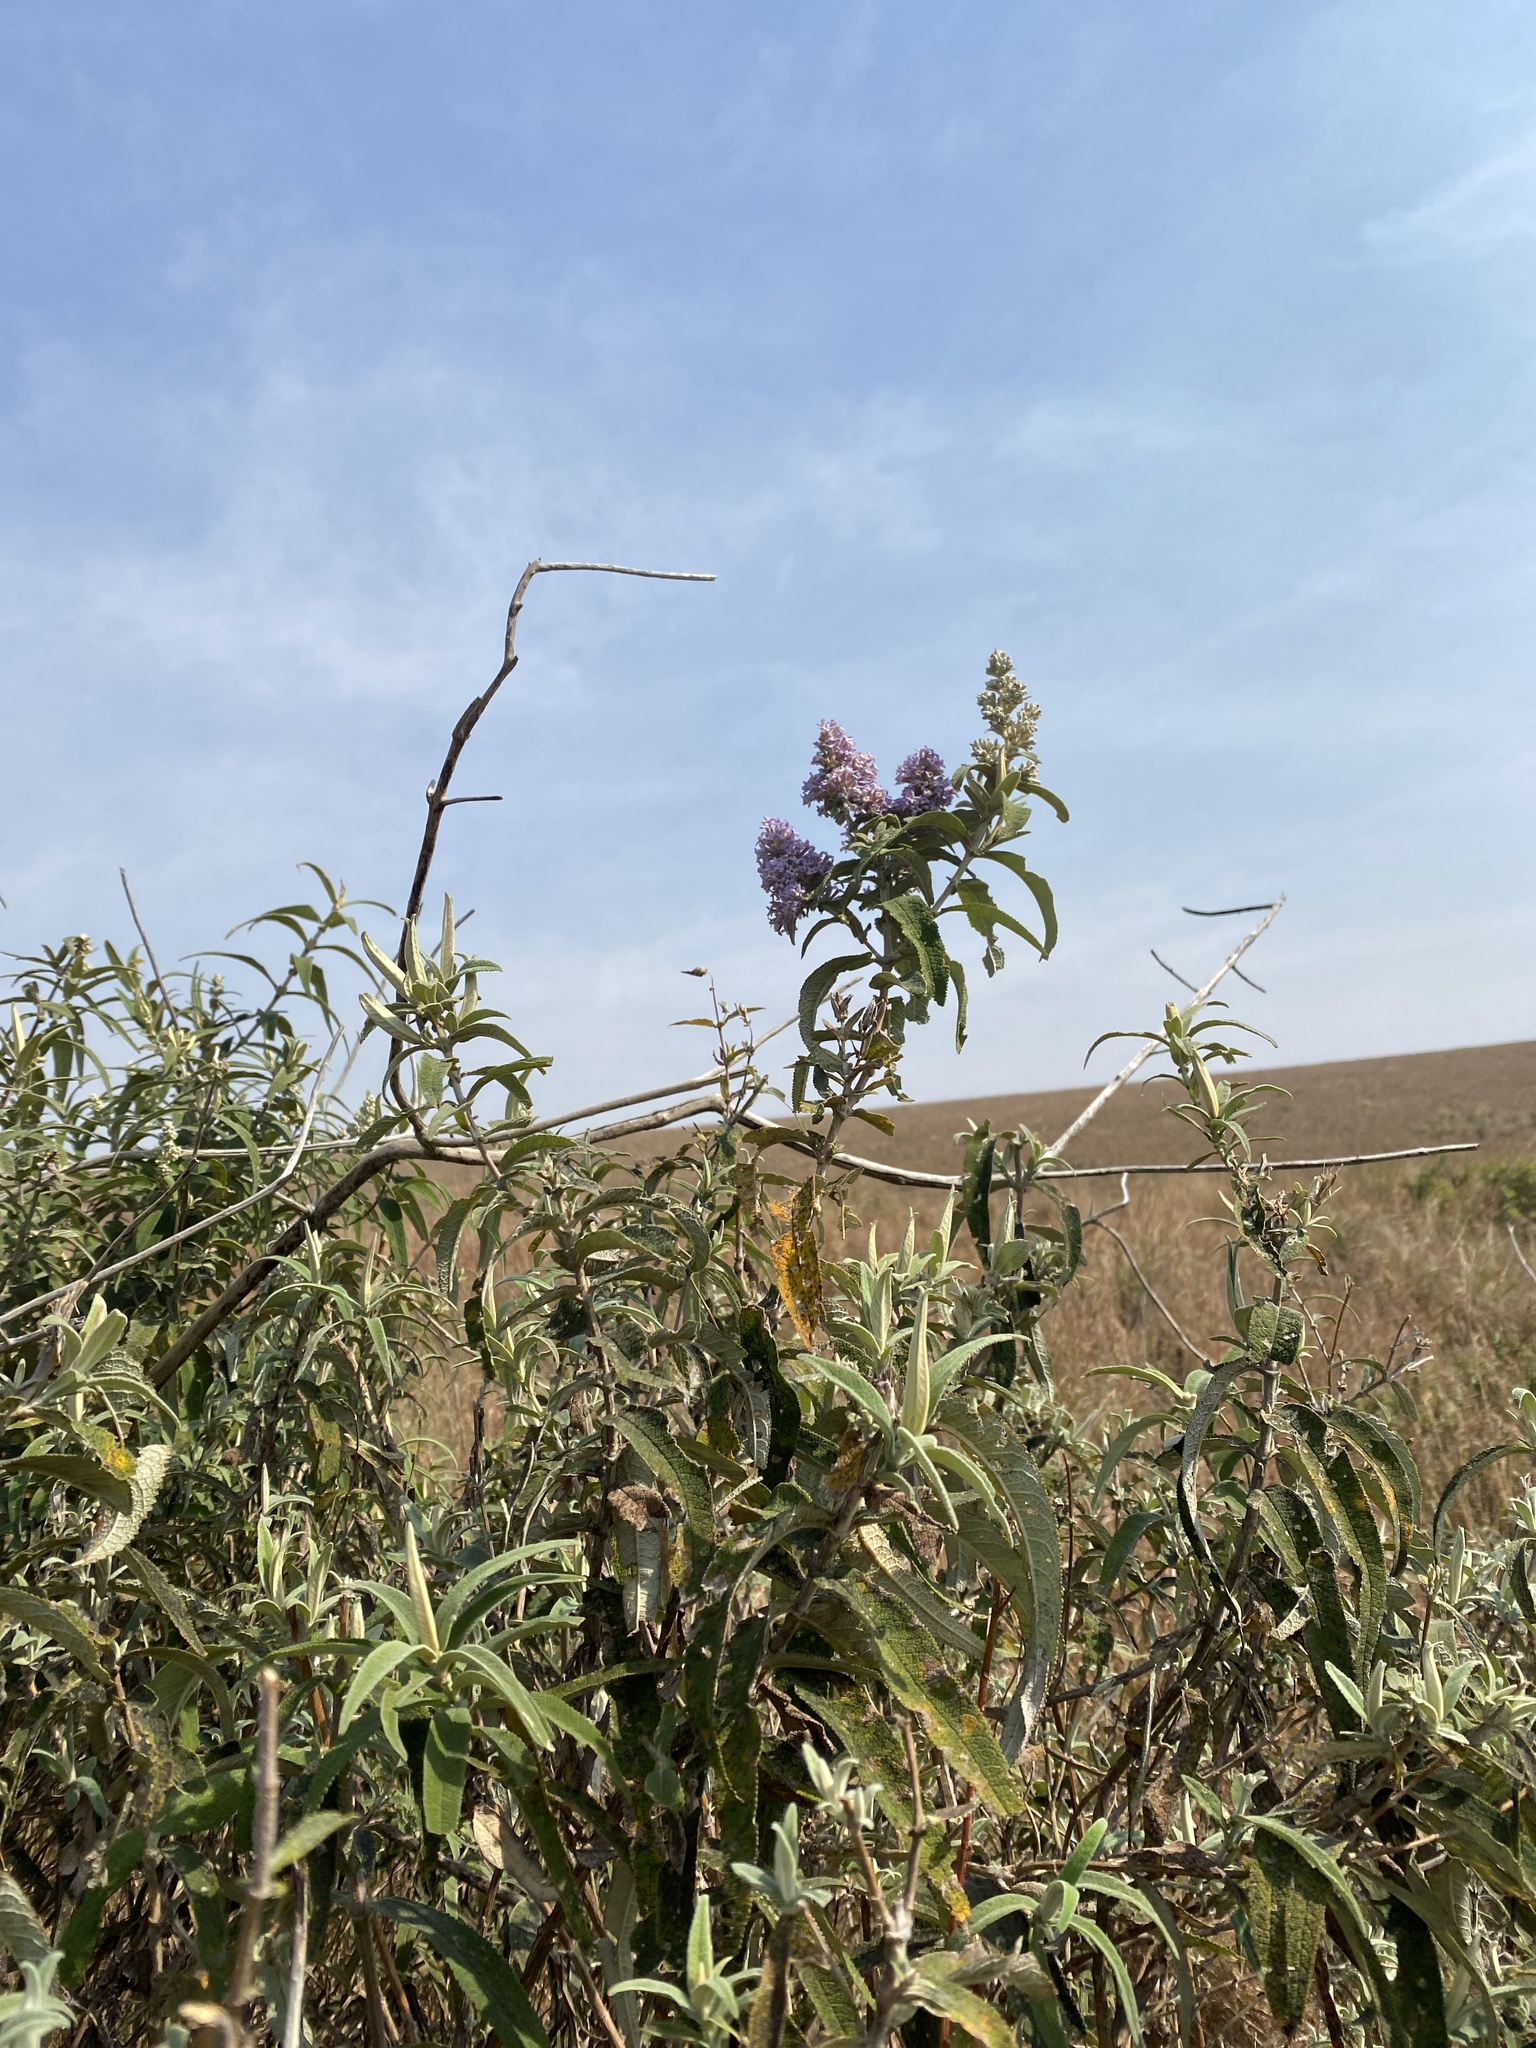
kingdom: Plantae
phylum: Tracheophyta
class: Magnoliopsida
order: Lamiales
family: Scrophulariaceae
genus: Buddleja
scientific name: Buddleja salviifolia
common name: Sagewood
